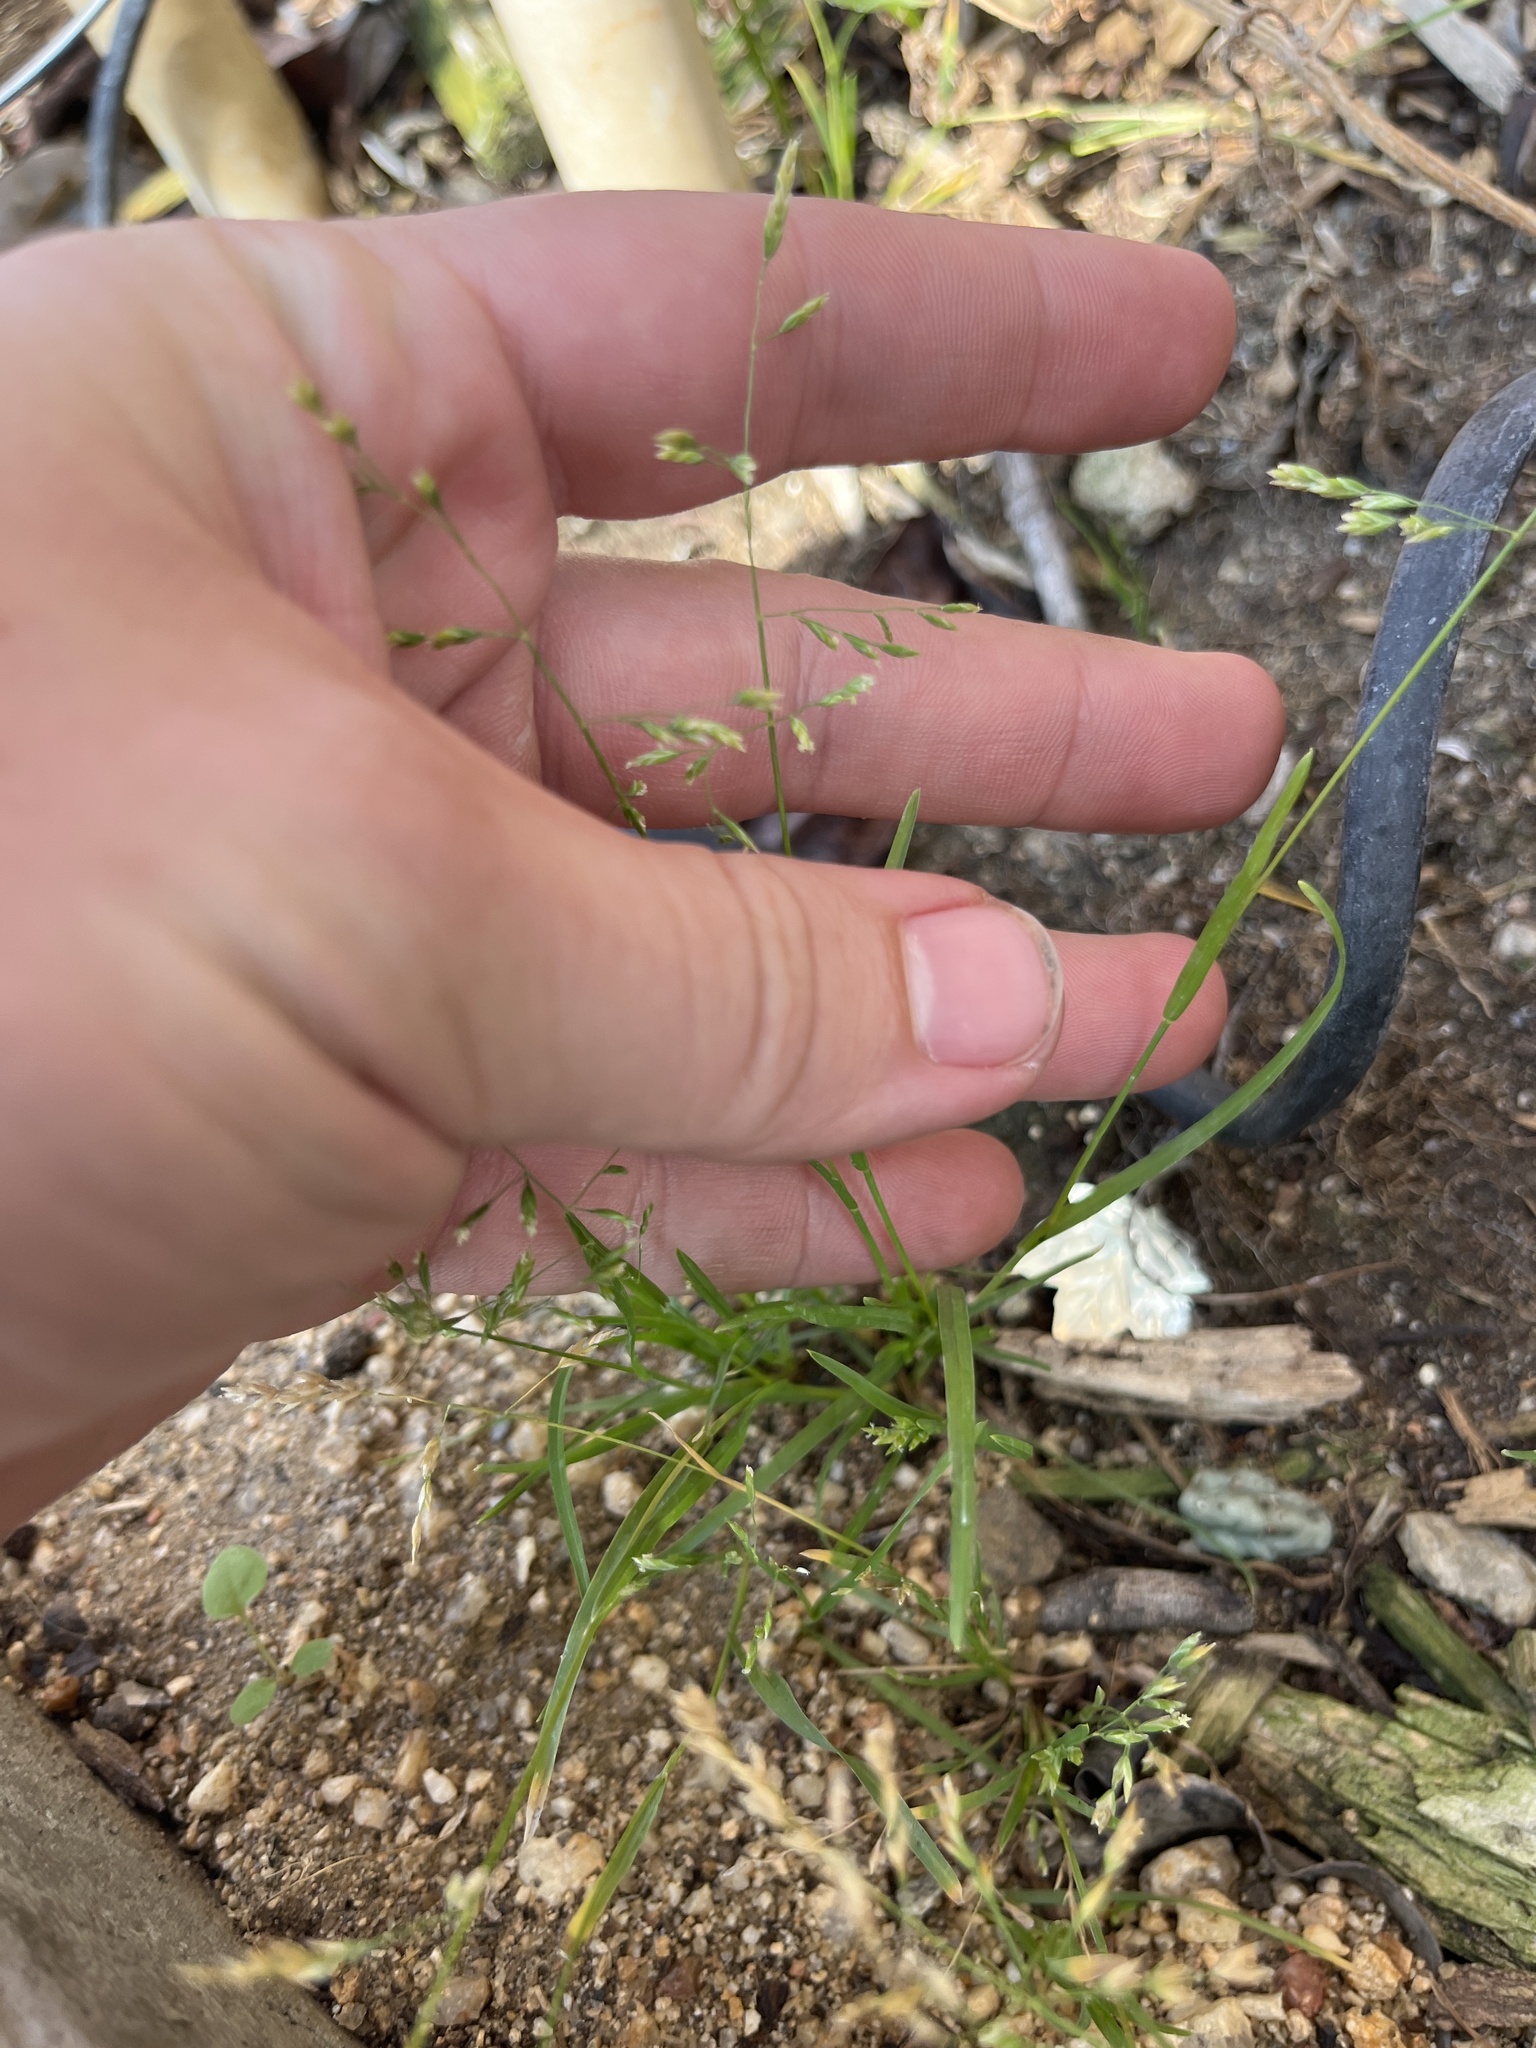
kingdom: Plantae
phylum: Tracheophyta
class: Liliopsida
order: Poales
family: Poaceae
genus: Poa
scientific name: Poa annua
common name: Annual bluegrass
